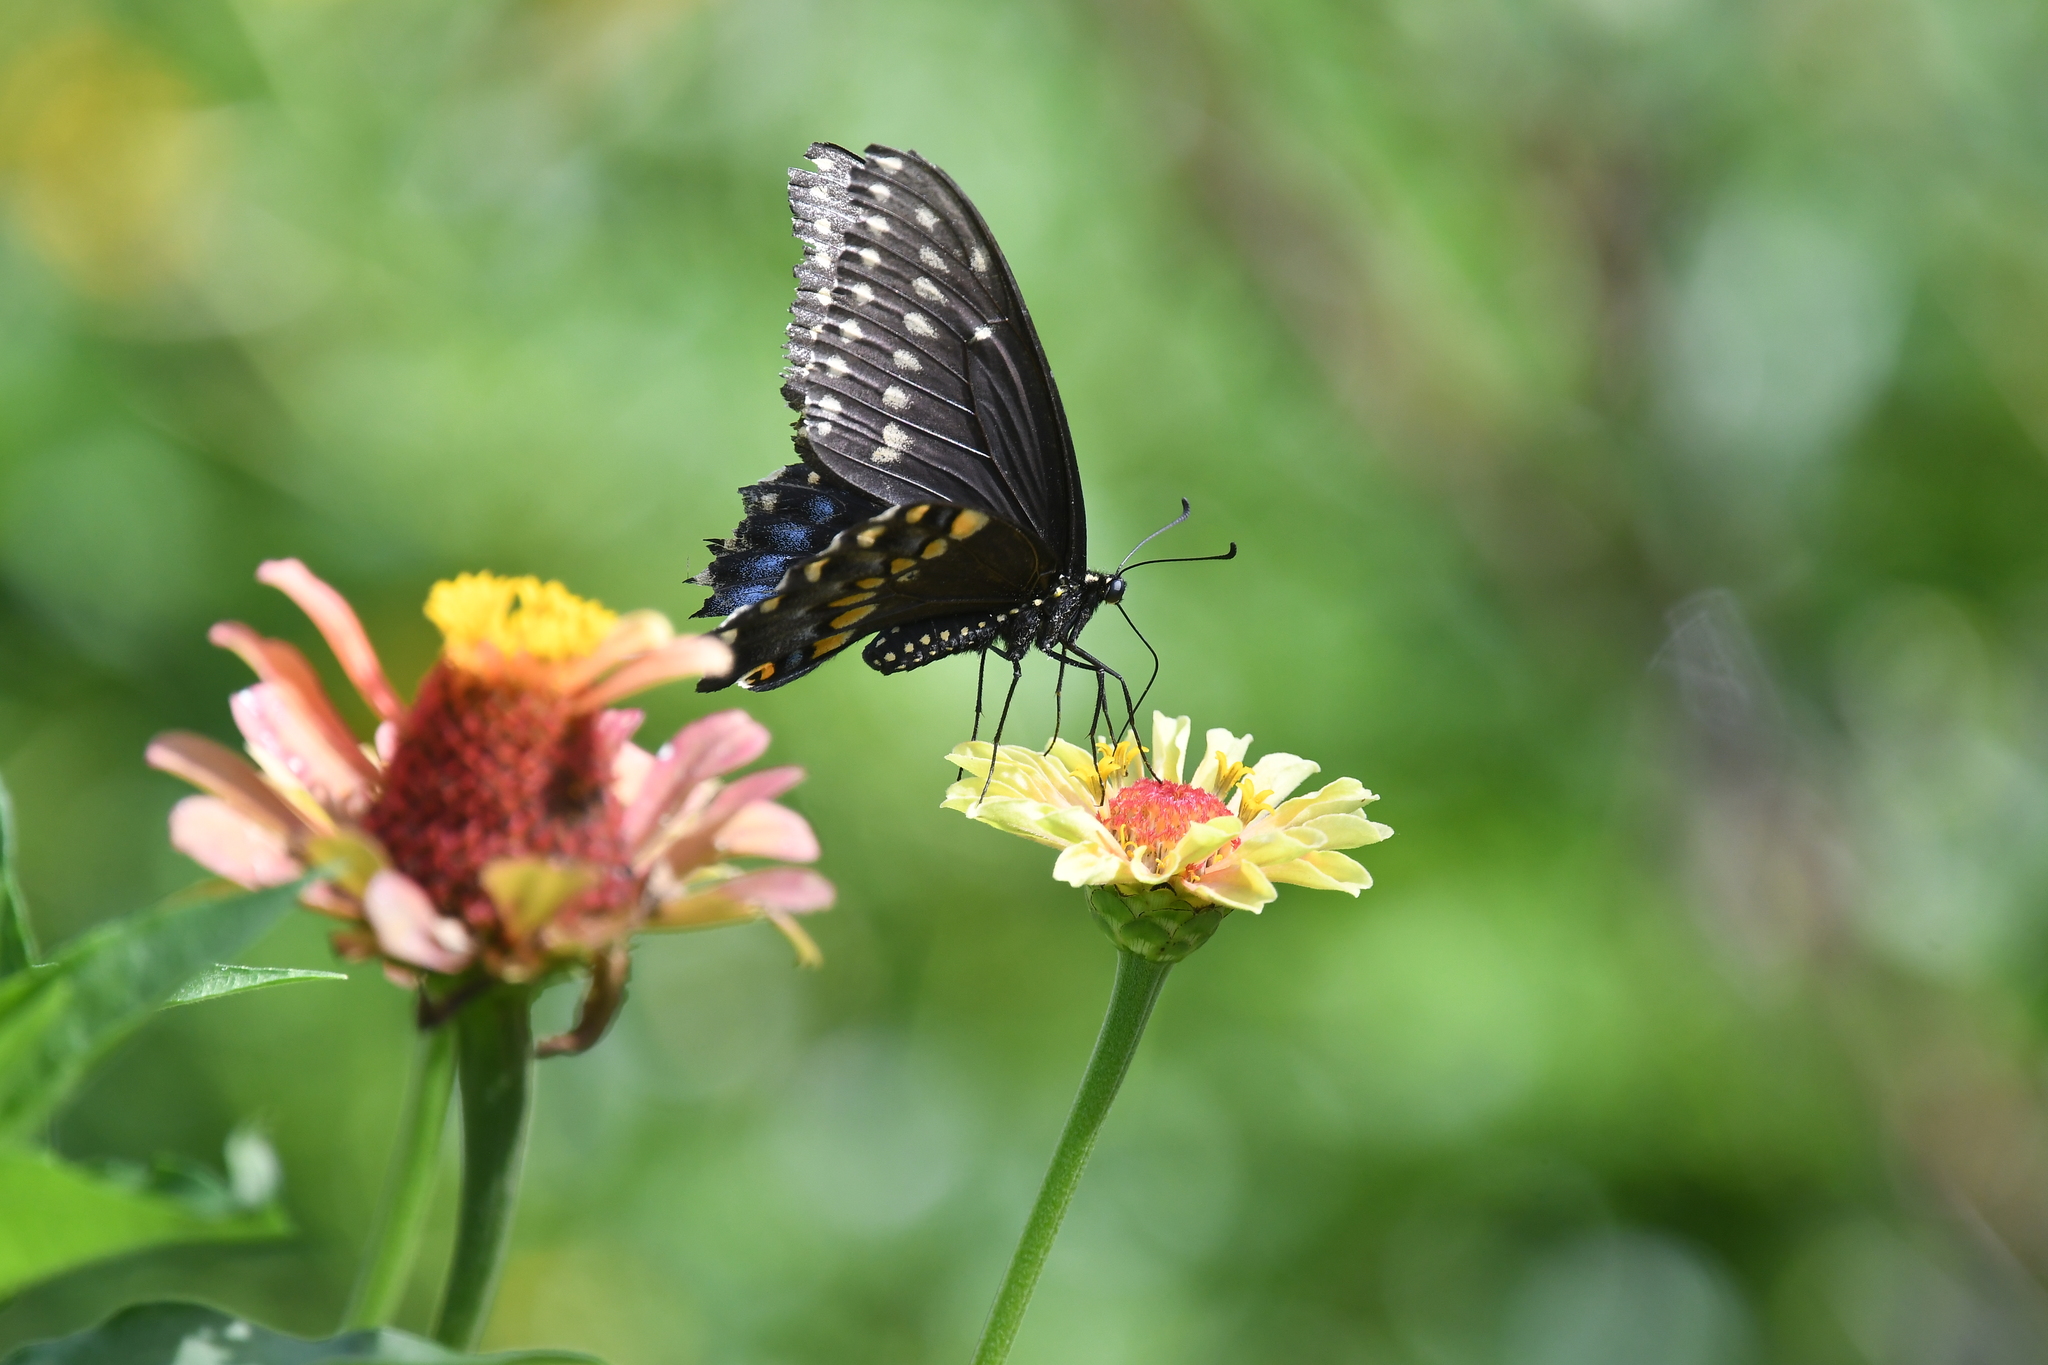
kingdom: Animalia
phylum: Arthropoda
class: Insecta
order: Lepidoptera
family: Papilionidae
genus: Papilio
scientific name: Papilio polyxenes
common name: Black swallowtail
